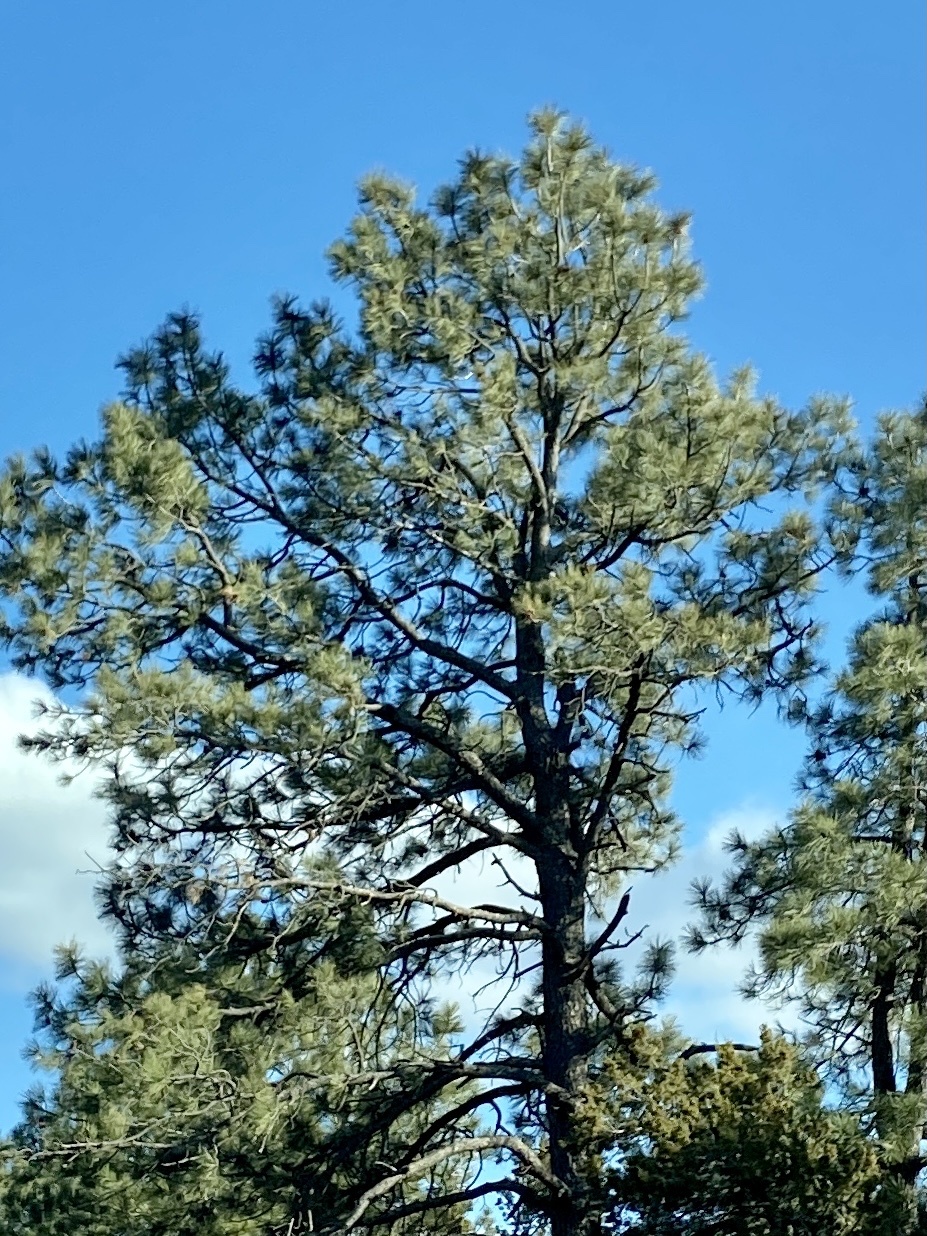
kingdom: Plantae
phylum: Tracheophyta
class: Pinopsida
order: Pinales
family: Pinaceae
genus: Pinus
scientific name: Pinus ponderosa
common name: Western yellow-pine
